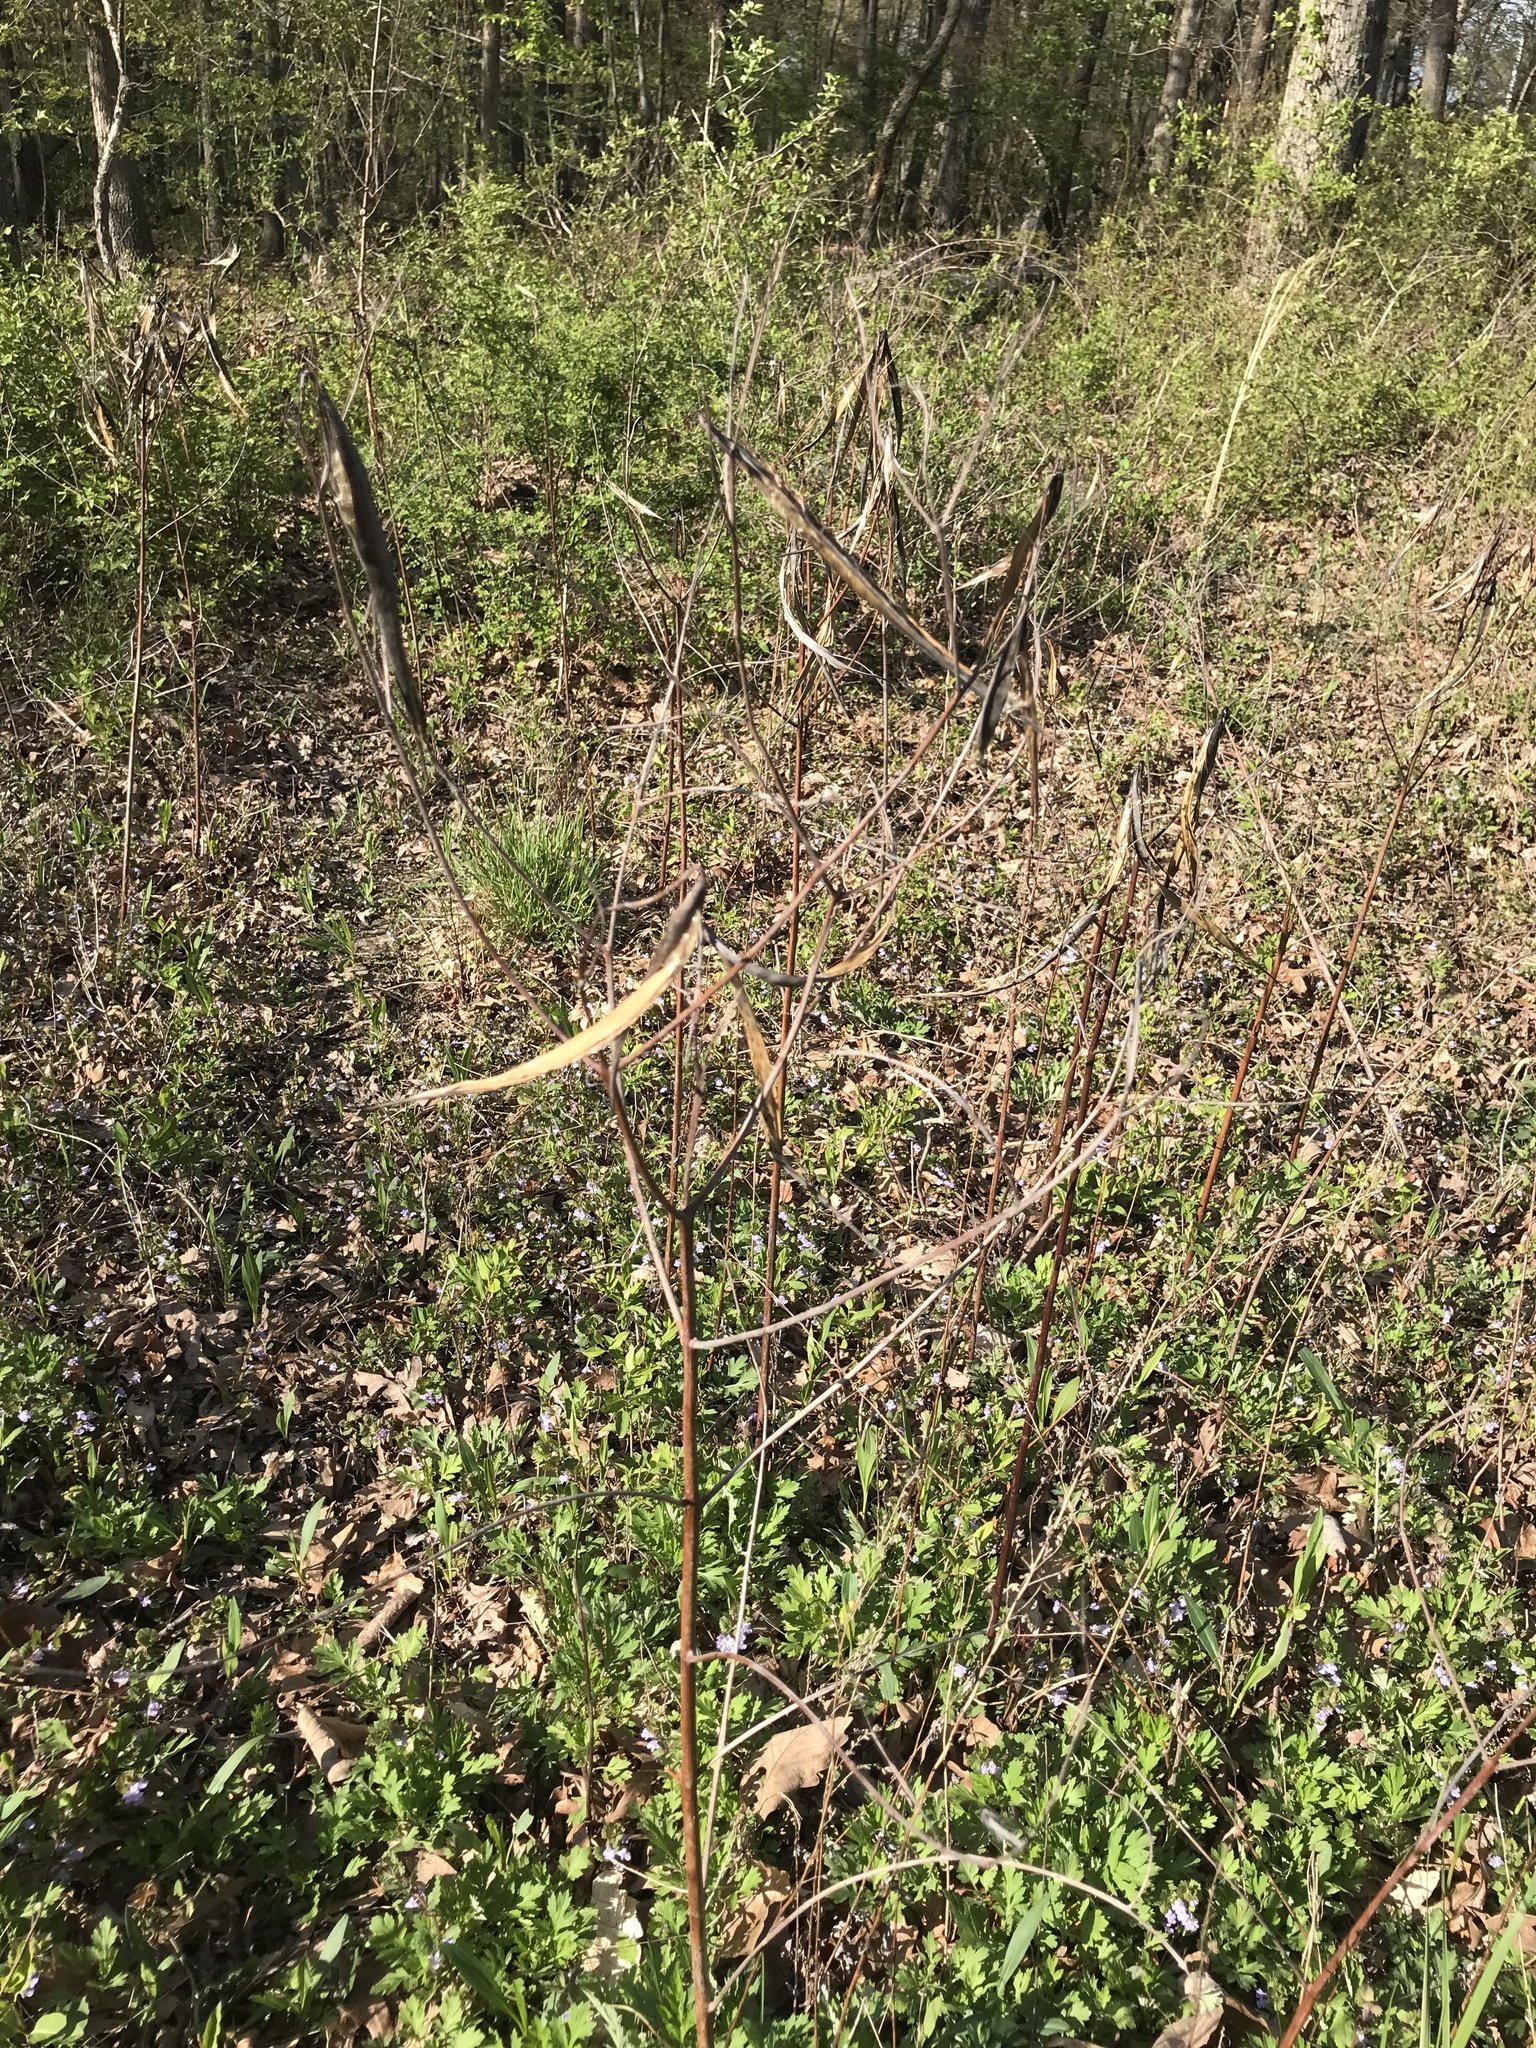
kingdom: Plantae
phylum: Tracheophyta
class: Magnoliopsida
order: Gentianales
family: Apocynaceae
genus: Apocynum
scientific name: Apocynum cannabinum
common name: Hemp dogbane
